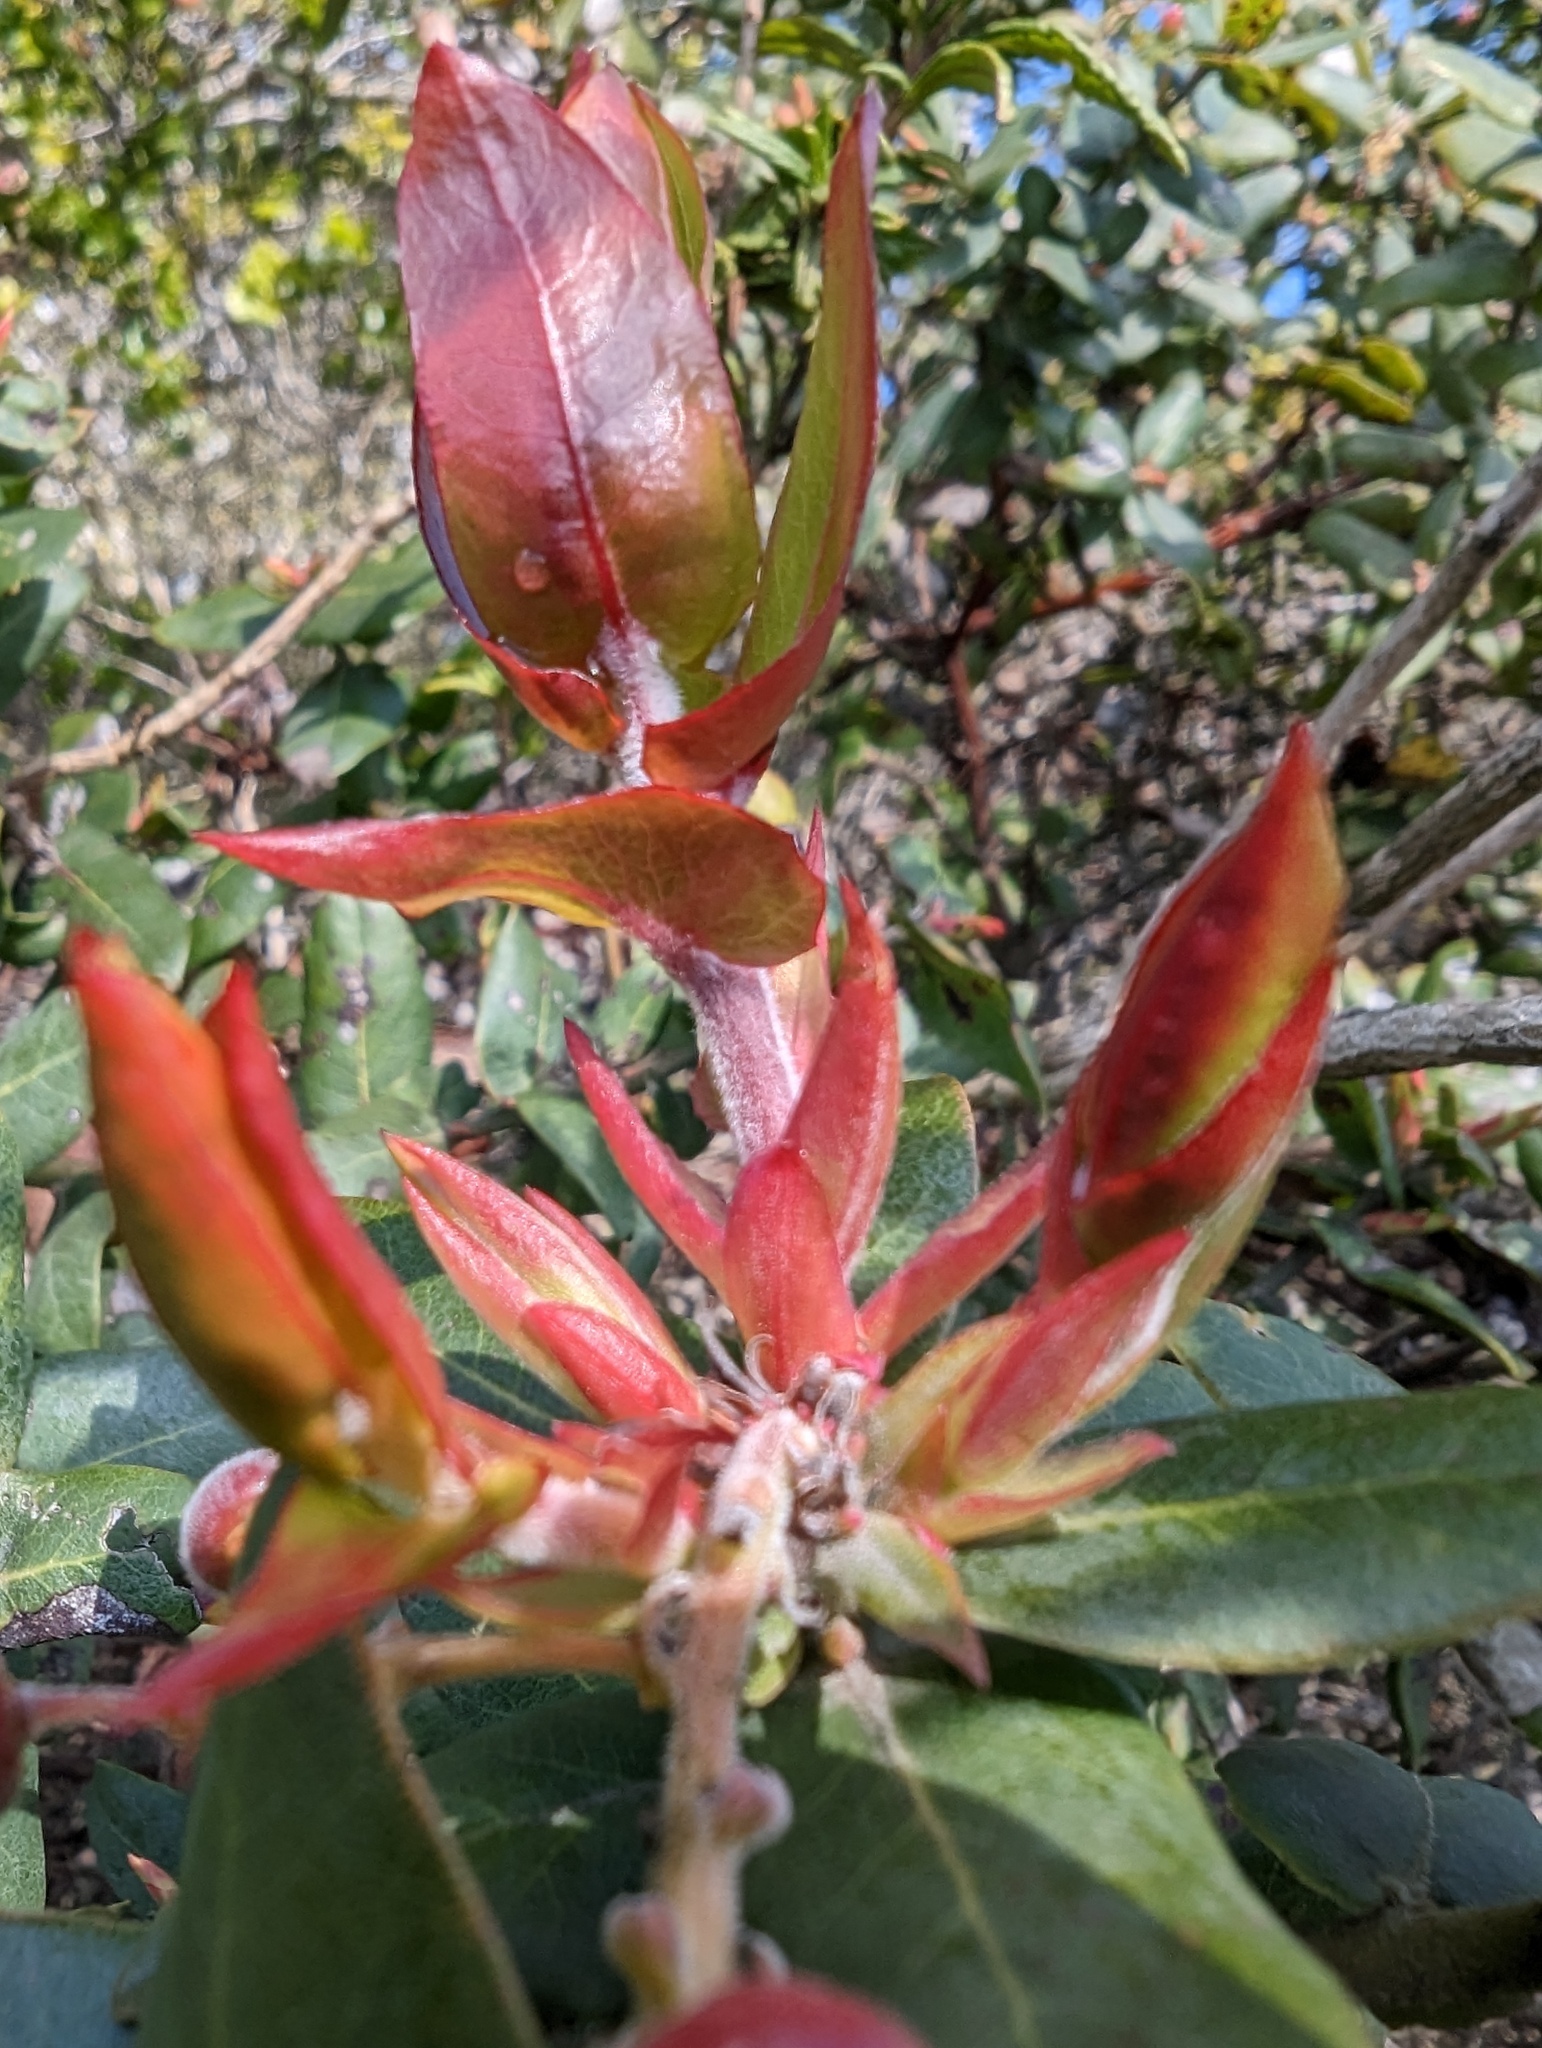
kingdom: Plantae
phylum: Tracheophyta
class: Magnoliopsida
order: Ericales
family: Ericaceae
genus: Arctostaphylos
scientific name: Arctostaphylos pajaroensis
